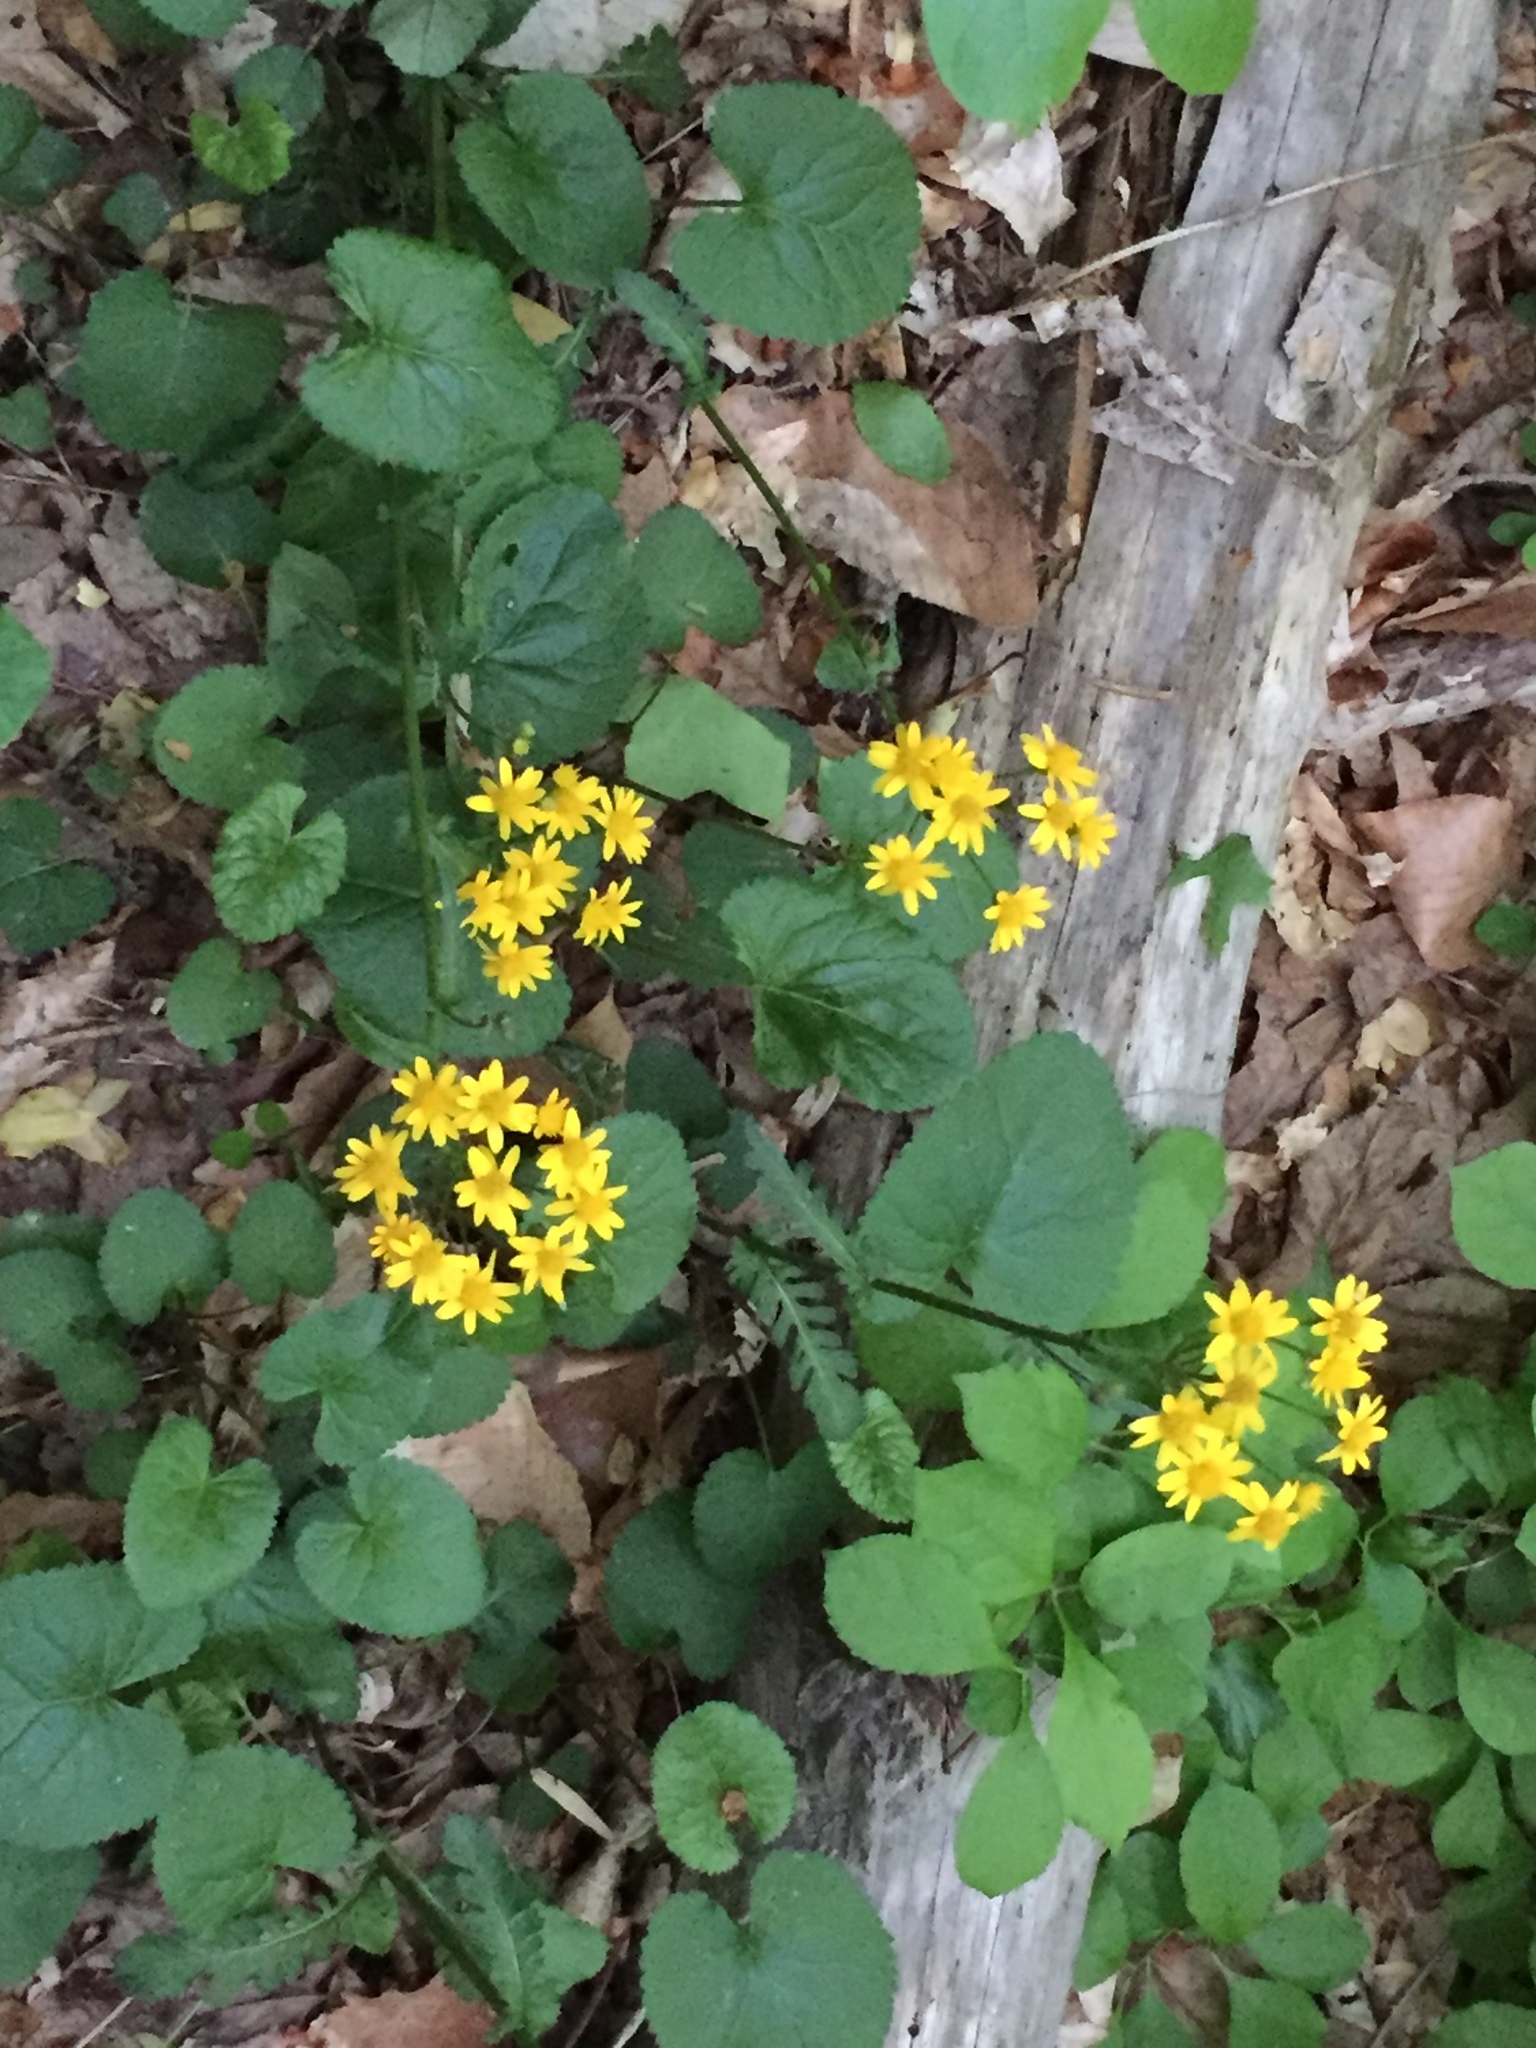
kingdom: Plantae
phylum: Tracheophyta
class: Magnoliopsida
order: Asterales
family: Asteraceae
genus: Packera
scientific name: Packera aurea
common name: Golden groundsel
